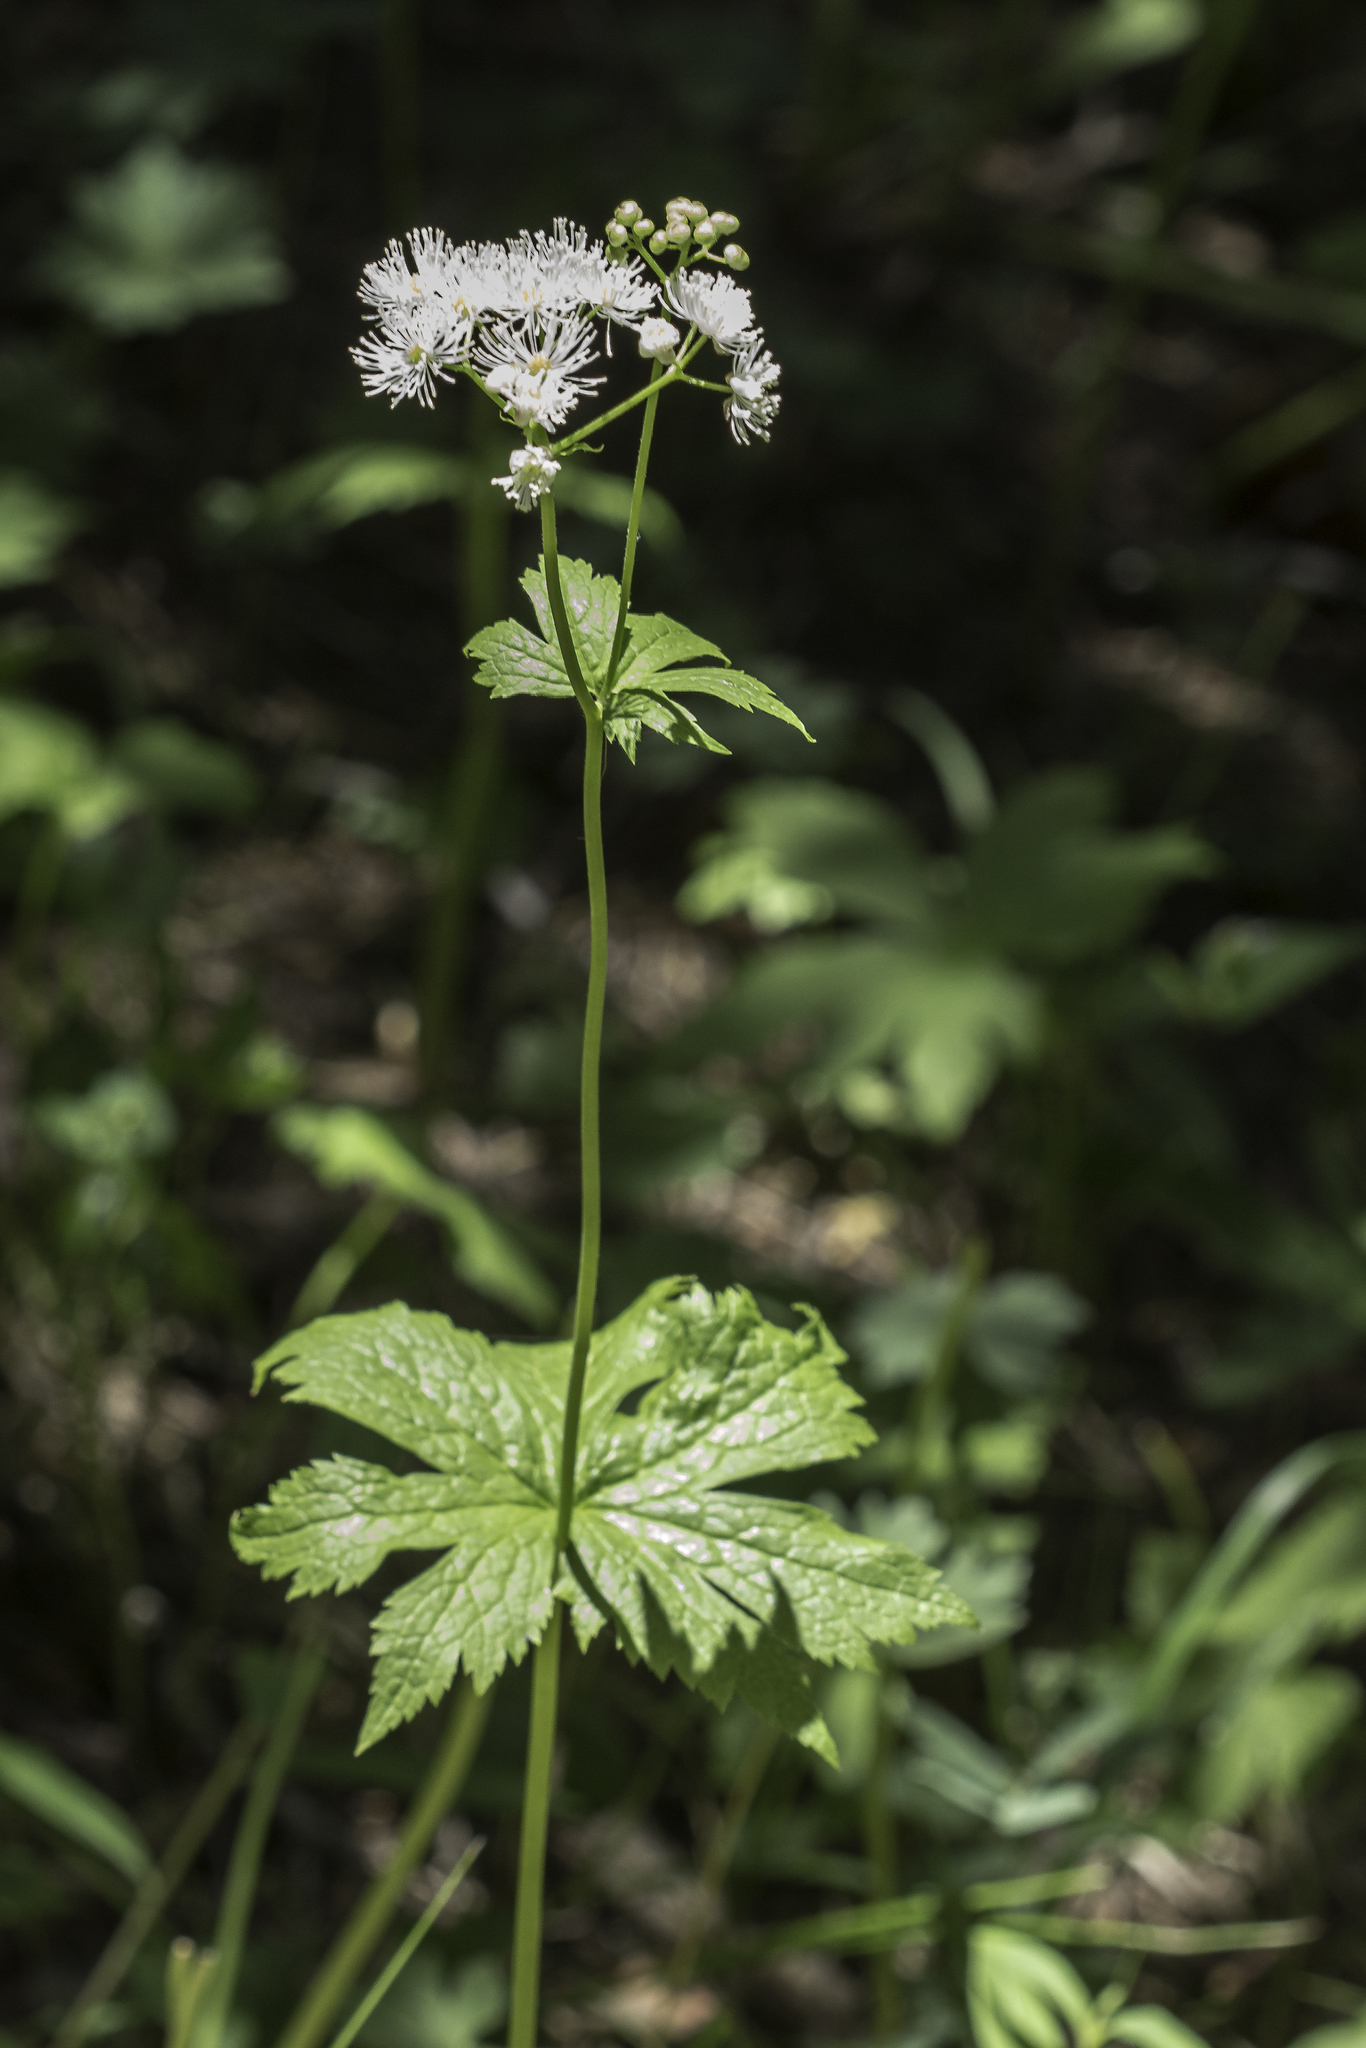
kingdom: Plantae
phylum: Tracheophyta
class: Magnoliopsida
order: Ranunculales
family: Ranunculaceae
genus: Trautvetteria
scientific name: Trautvetteria carolinensis
